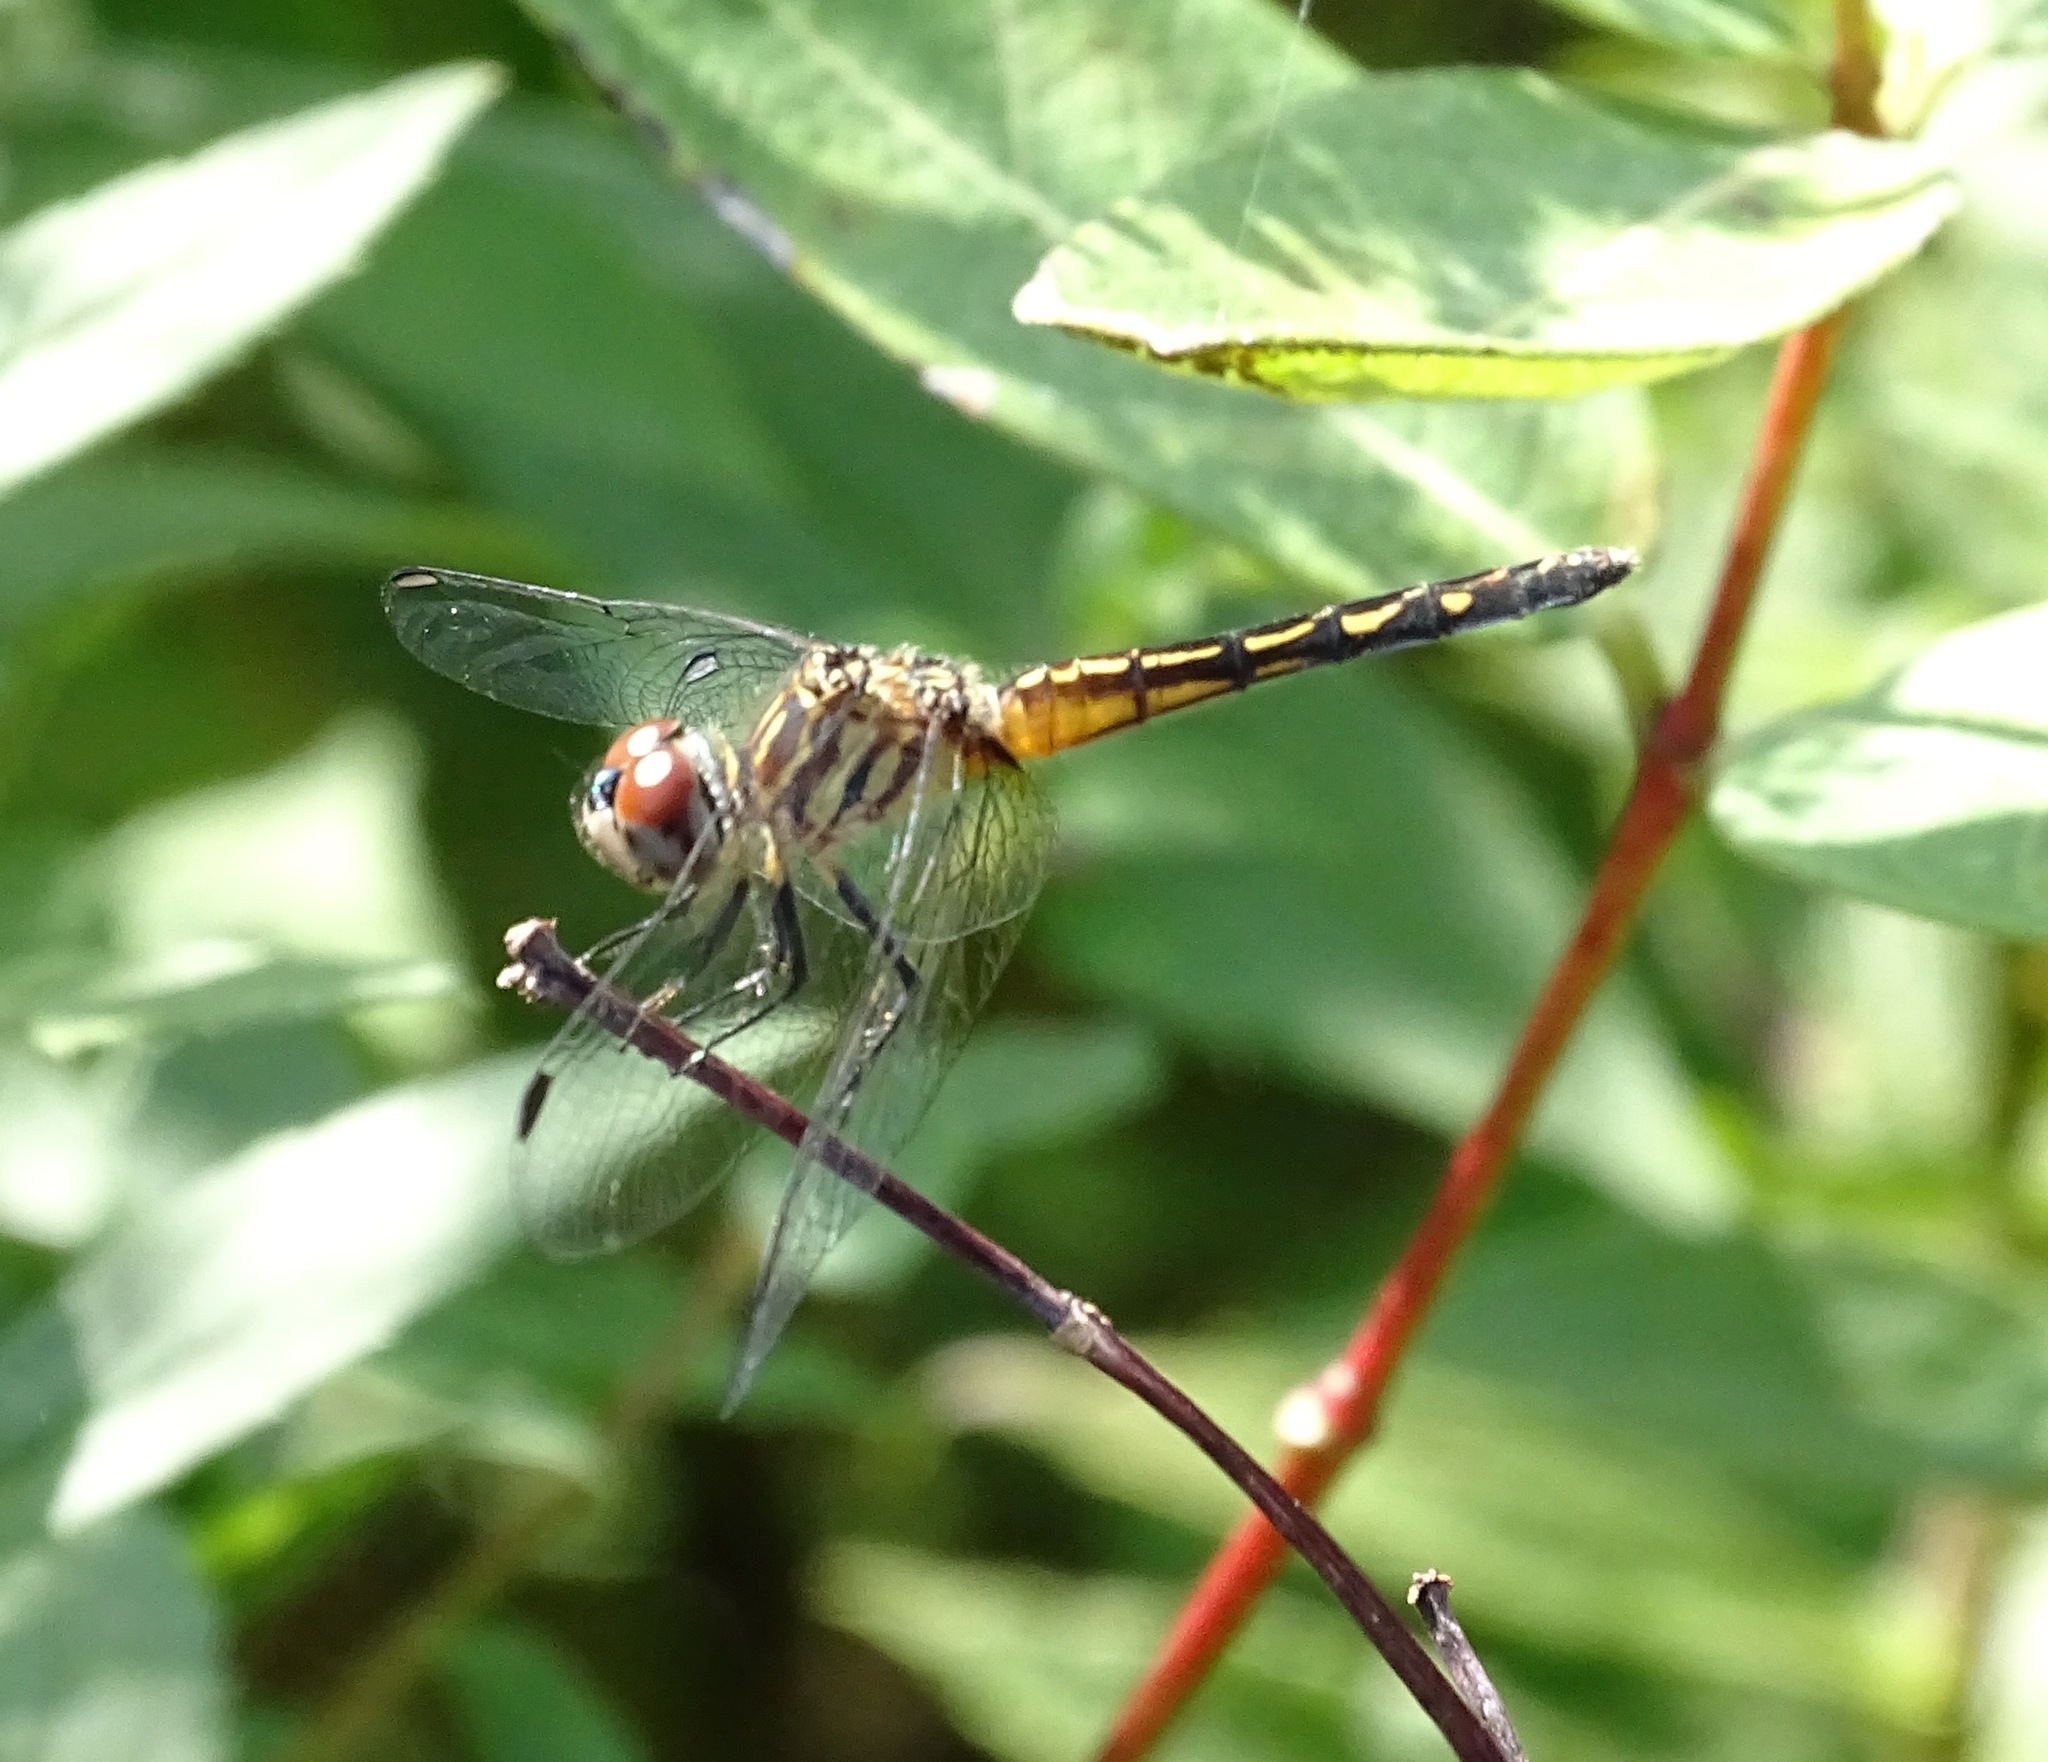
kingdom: Animalia
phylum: Arthropoda
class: Insecta
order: Odonata
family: Libellulidae
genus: Pachydiplax
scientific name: Pachydiplax longipennis
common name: Blue dasher
